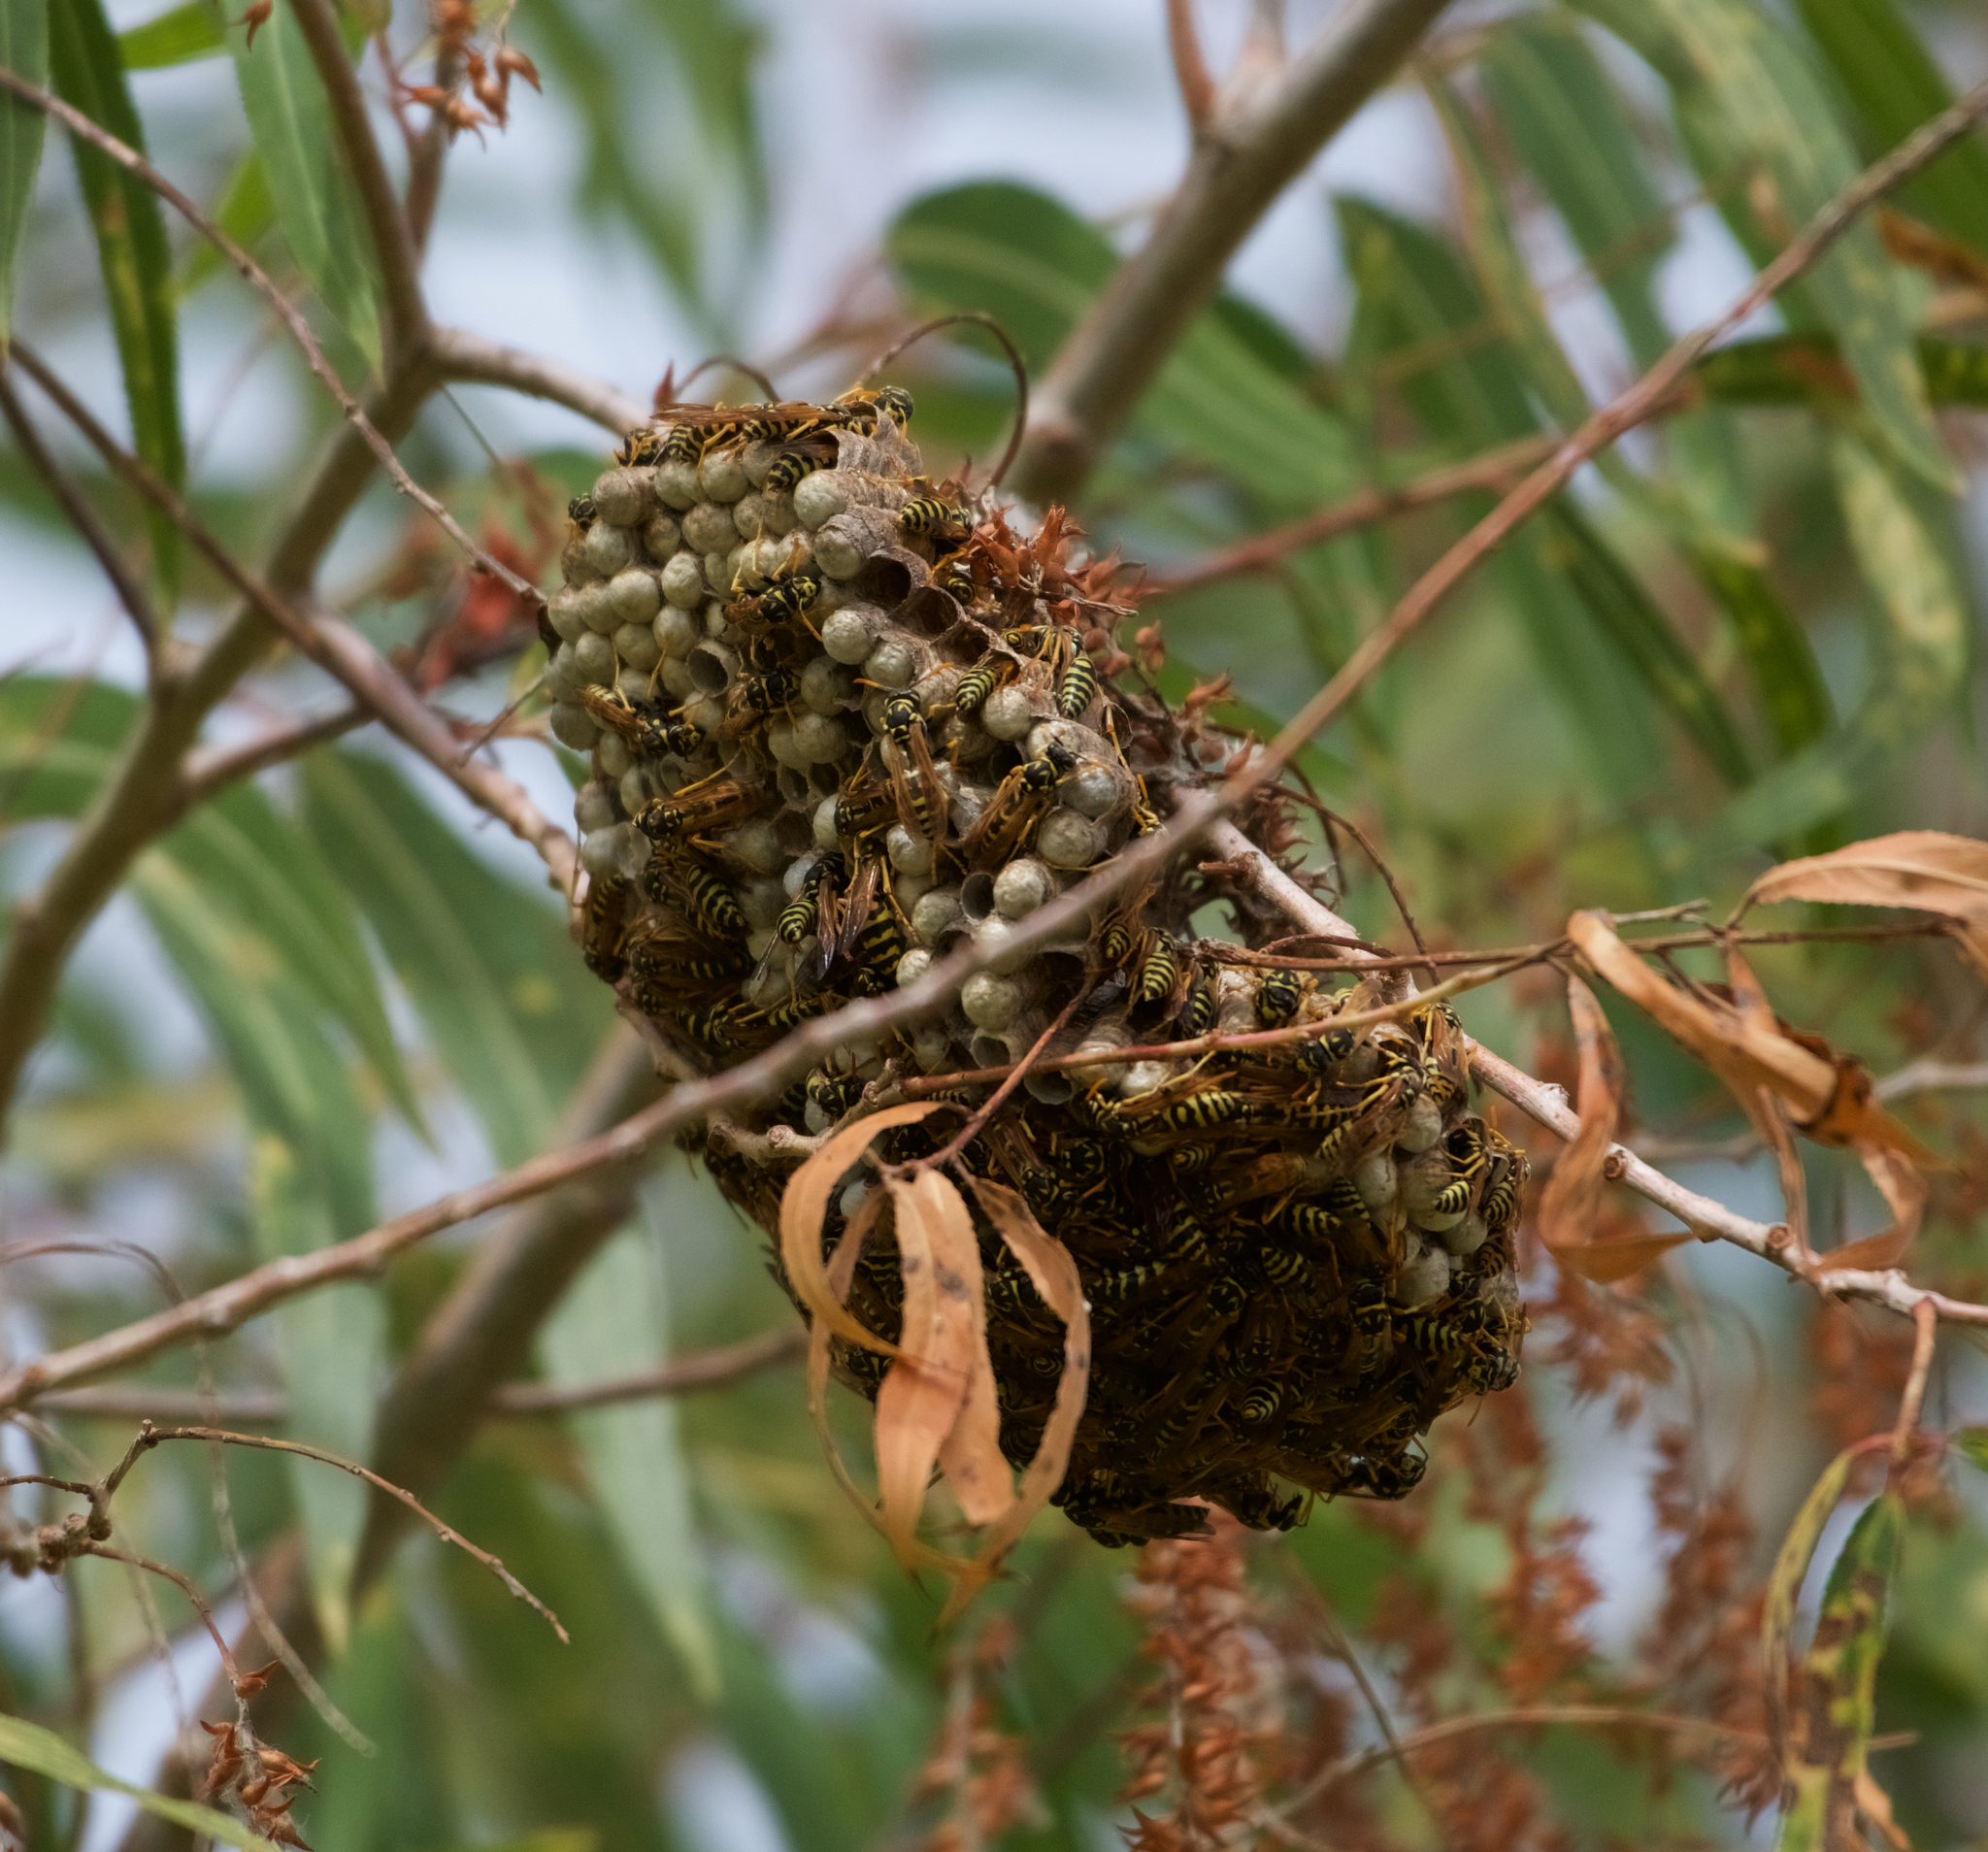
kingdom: Animalia
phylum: Arthropoda
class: Insecta
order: Hymenoptera
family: Eumenidae
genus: Polistes
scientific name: Polistes dominula
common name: Paper wasp
